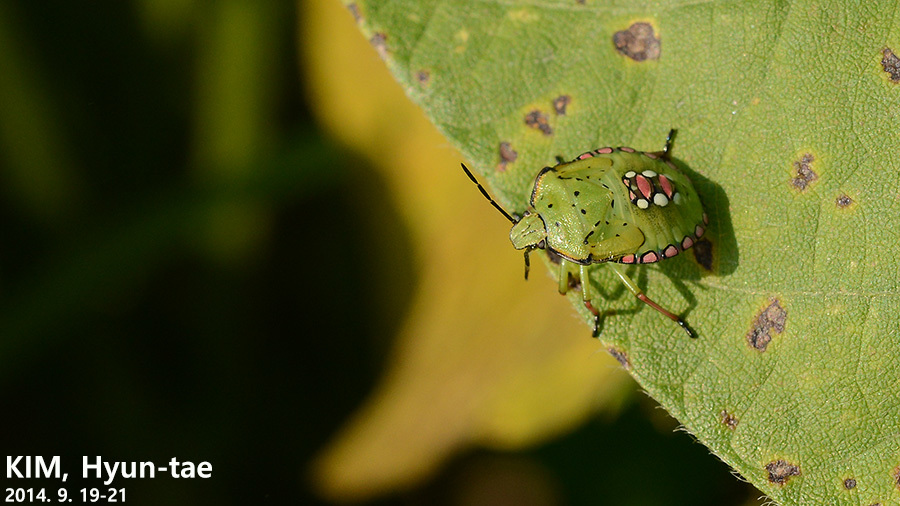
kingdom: Animalia
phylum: Arthropoda
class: Insecta
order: Hemiptera
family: Pentatomidae
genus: Nezara
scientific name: Nezara antennata
